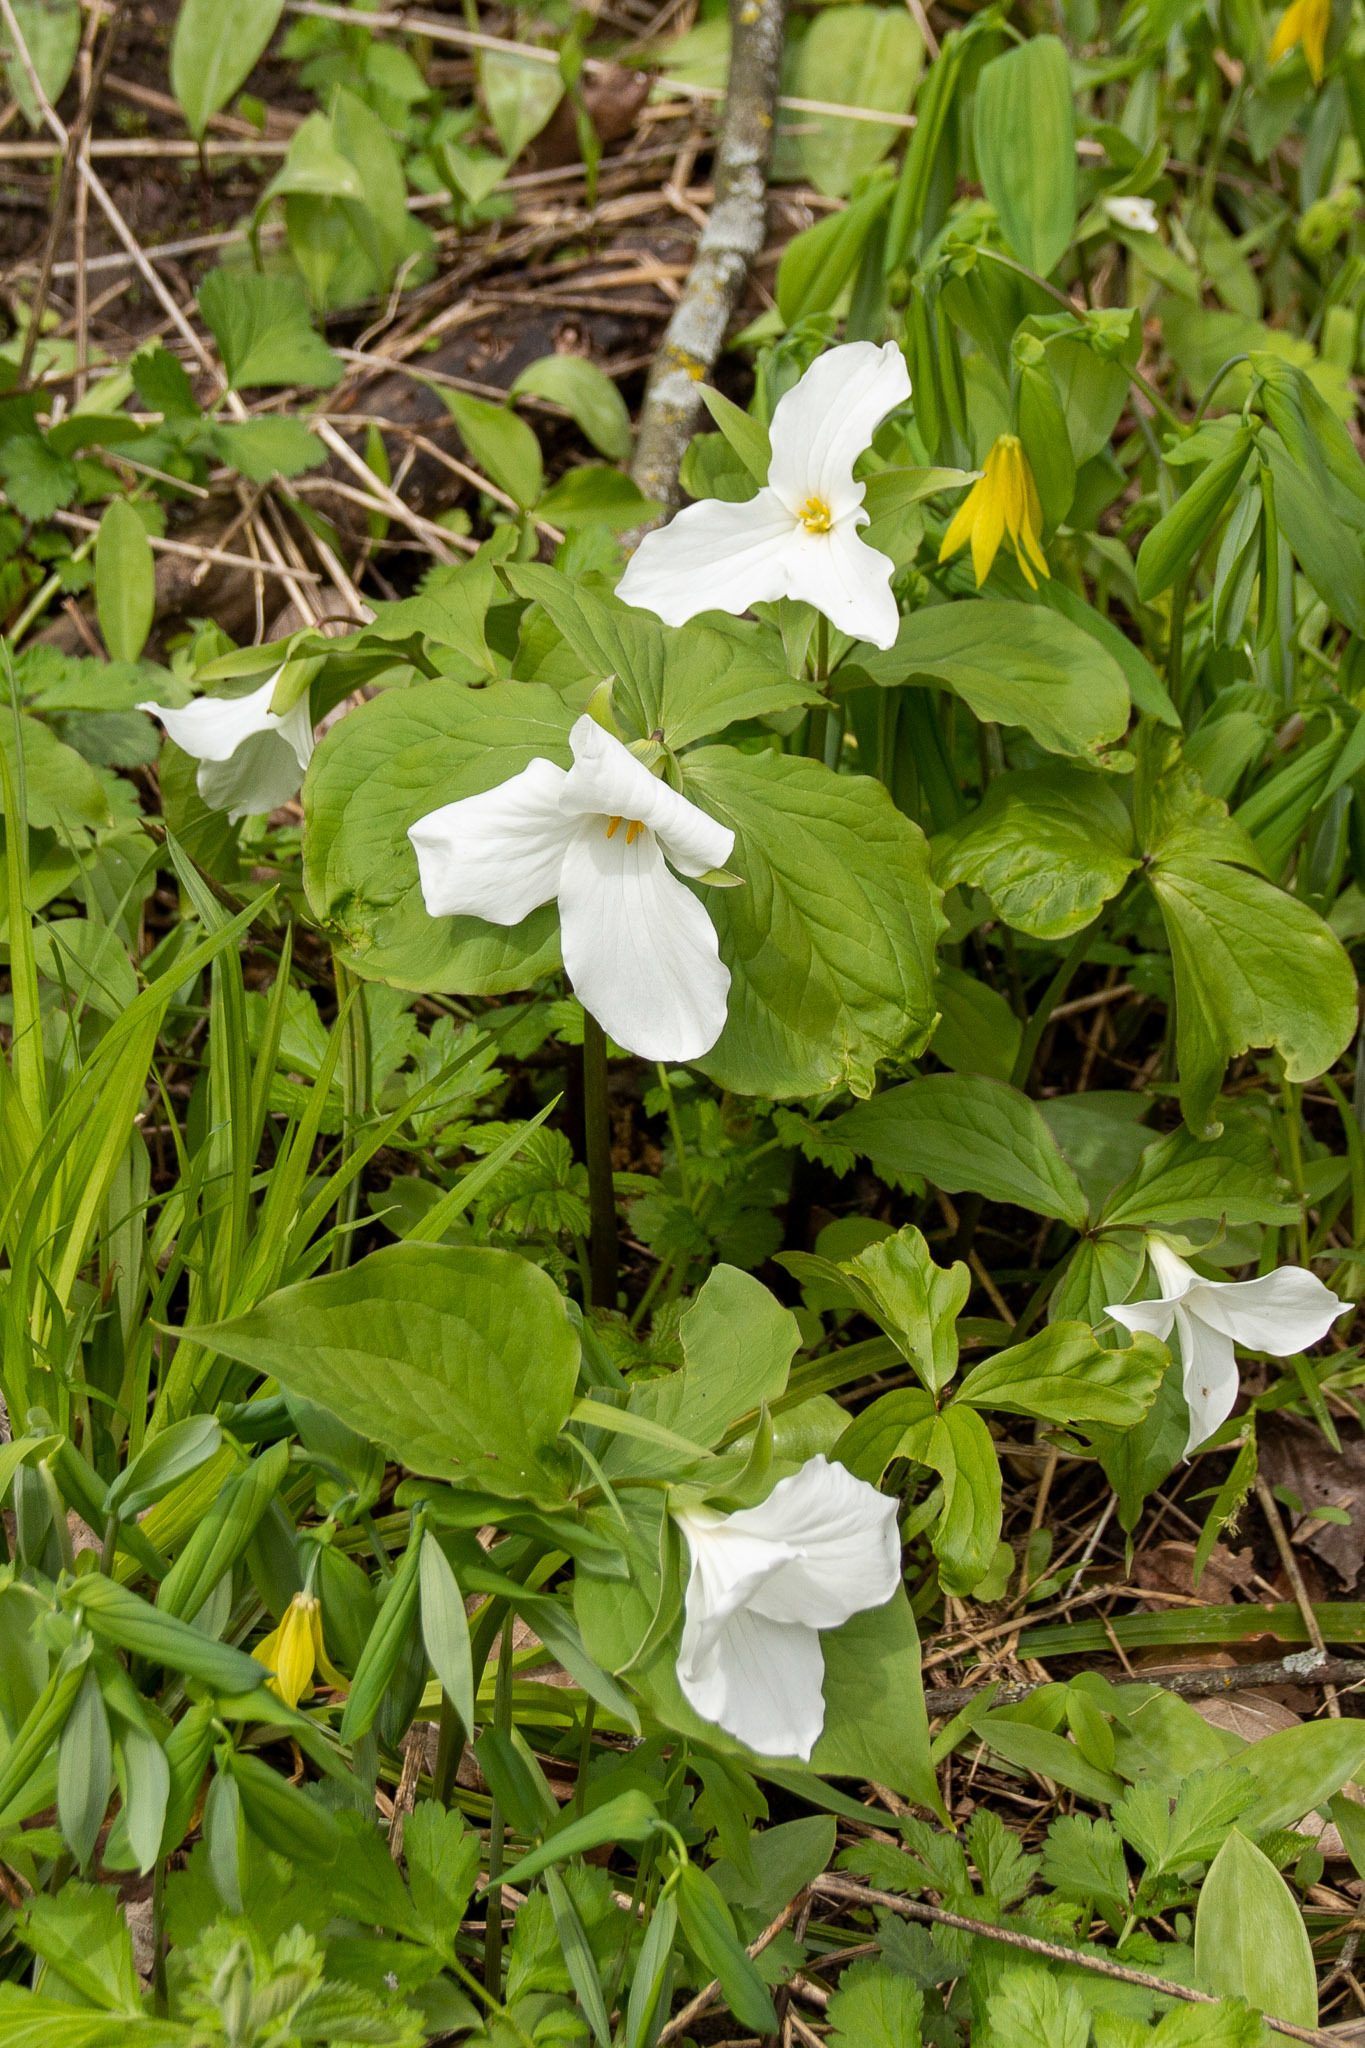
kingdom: Plantae
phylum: Tracheophyta
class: Liliopsida
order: Liliales
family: Melanthiaceae
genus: Trillium
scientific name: Trillium grandiflorum
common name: Great white trillium
